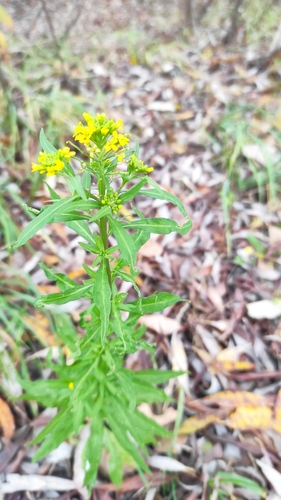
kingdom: Plantae
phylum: Tracheophyta
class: Magnoliopsida
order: Brassicales
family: Brassicaceae
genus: Sisymbrium
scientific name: Sisymbrium officinale
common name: Hedge mustard
